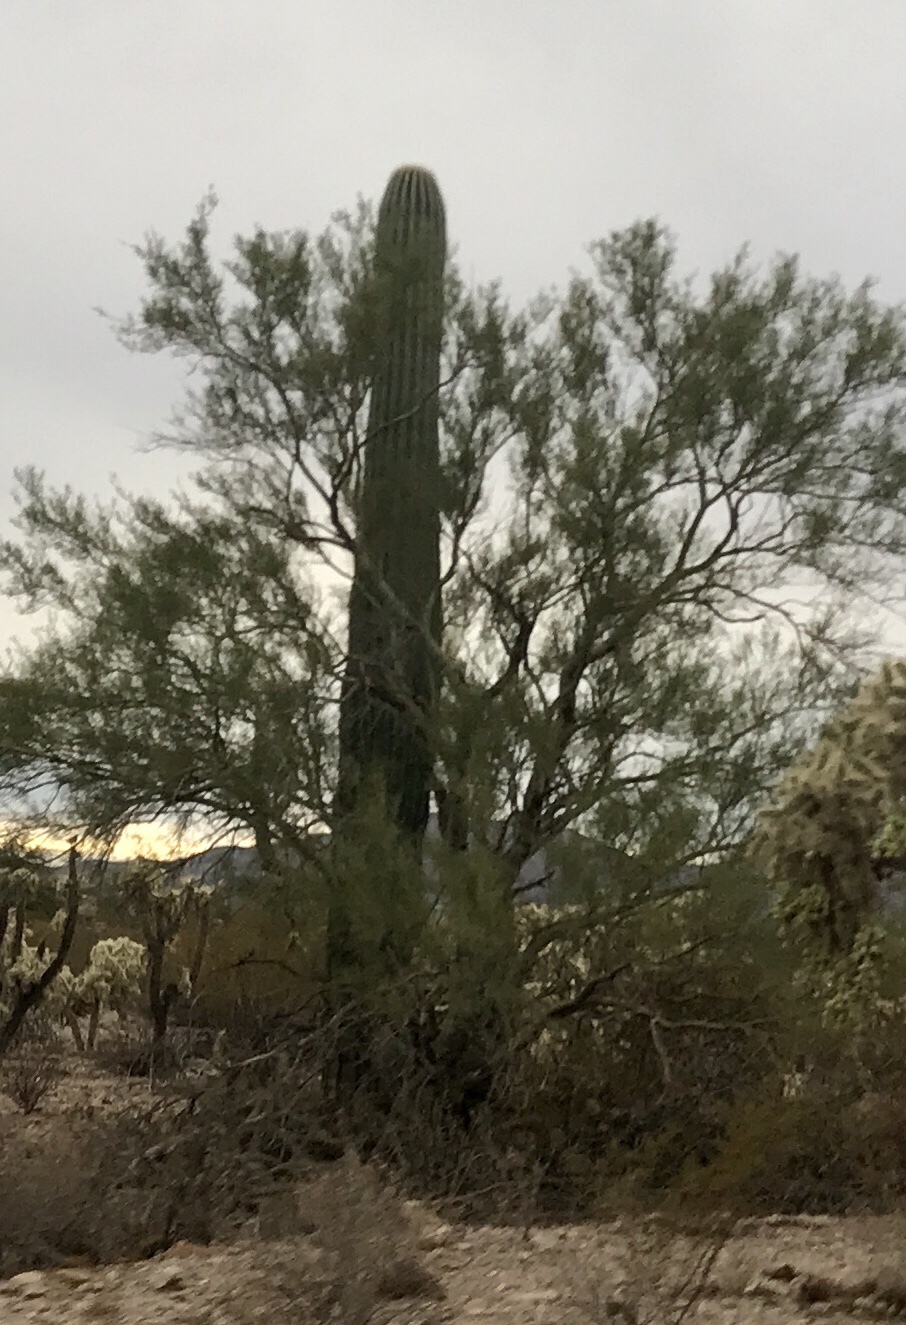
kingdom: Plantae
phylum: Tracheophyta
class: Magnoliopsida
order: Caryophyllales
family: Cactaceae
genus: Carnegiea
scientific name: Carnegiea gigantea
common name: Saguaro
